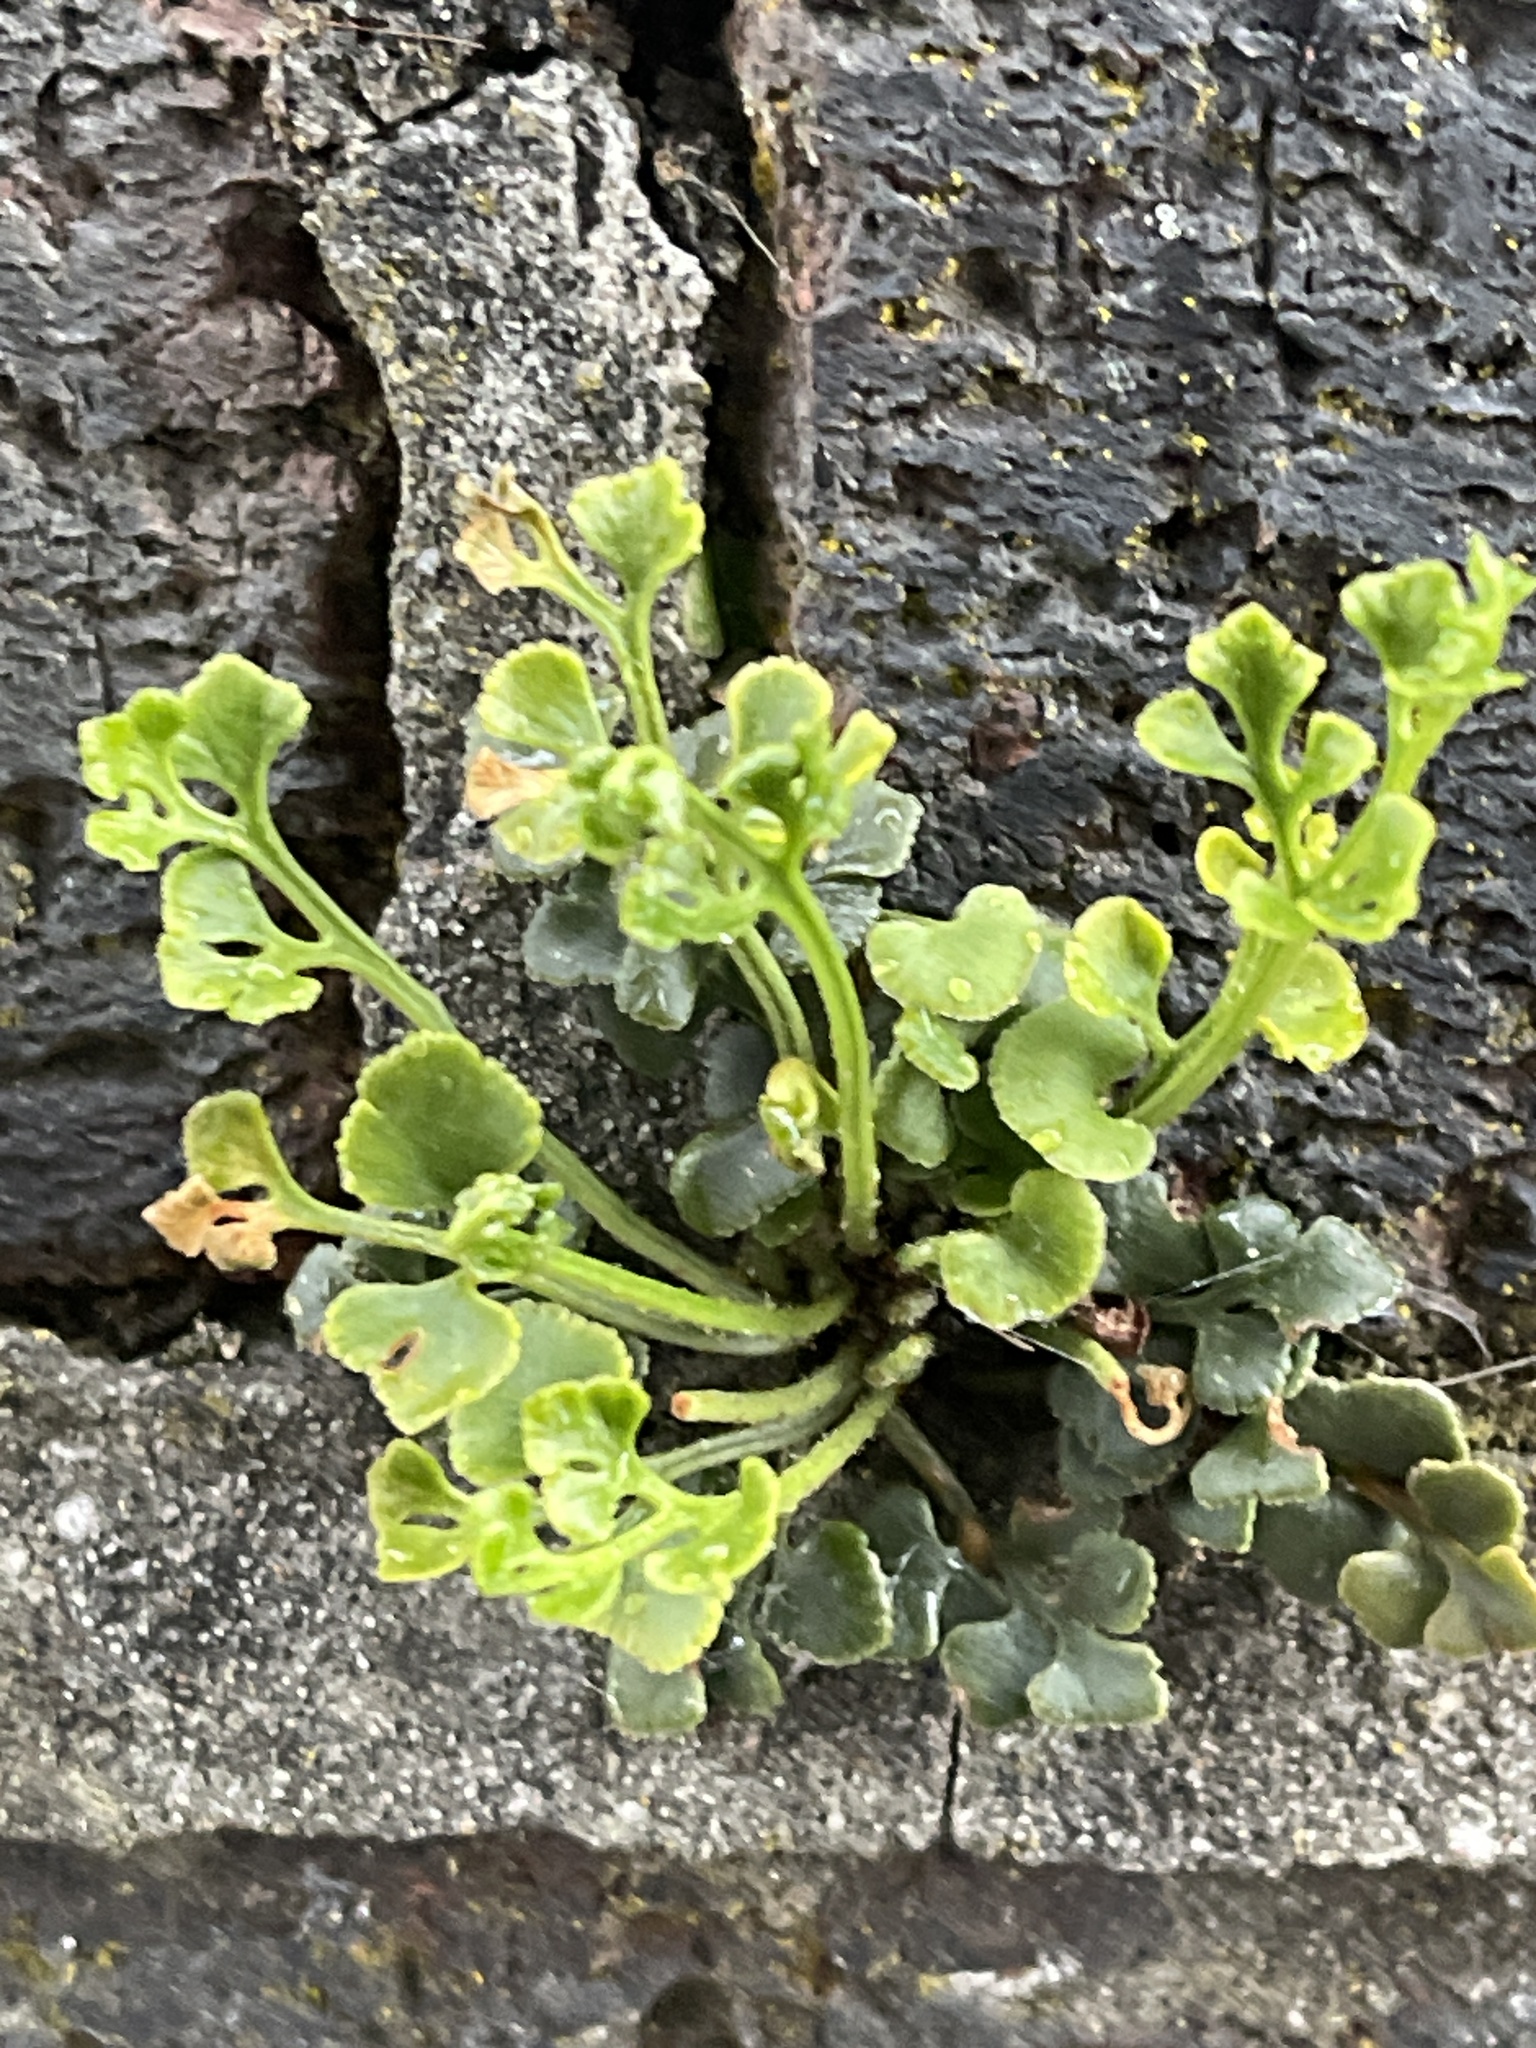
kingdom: Plantae
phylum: Tracheophyta
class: Polypodiopsida
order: Polypodiales
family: Aspleniaceae
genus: Asplenium
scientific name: Asplenium ruta-muraria
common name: Wall-rue
